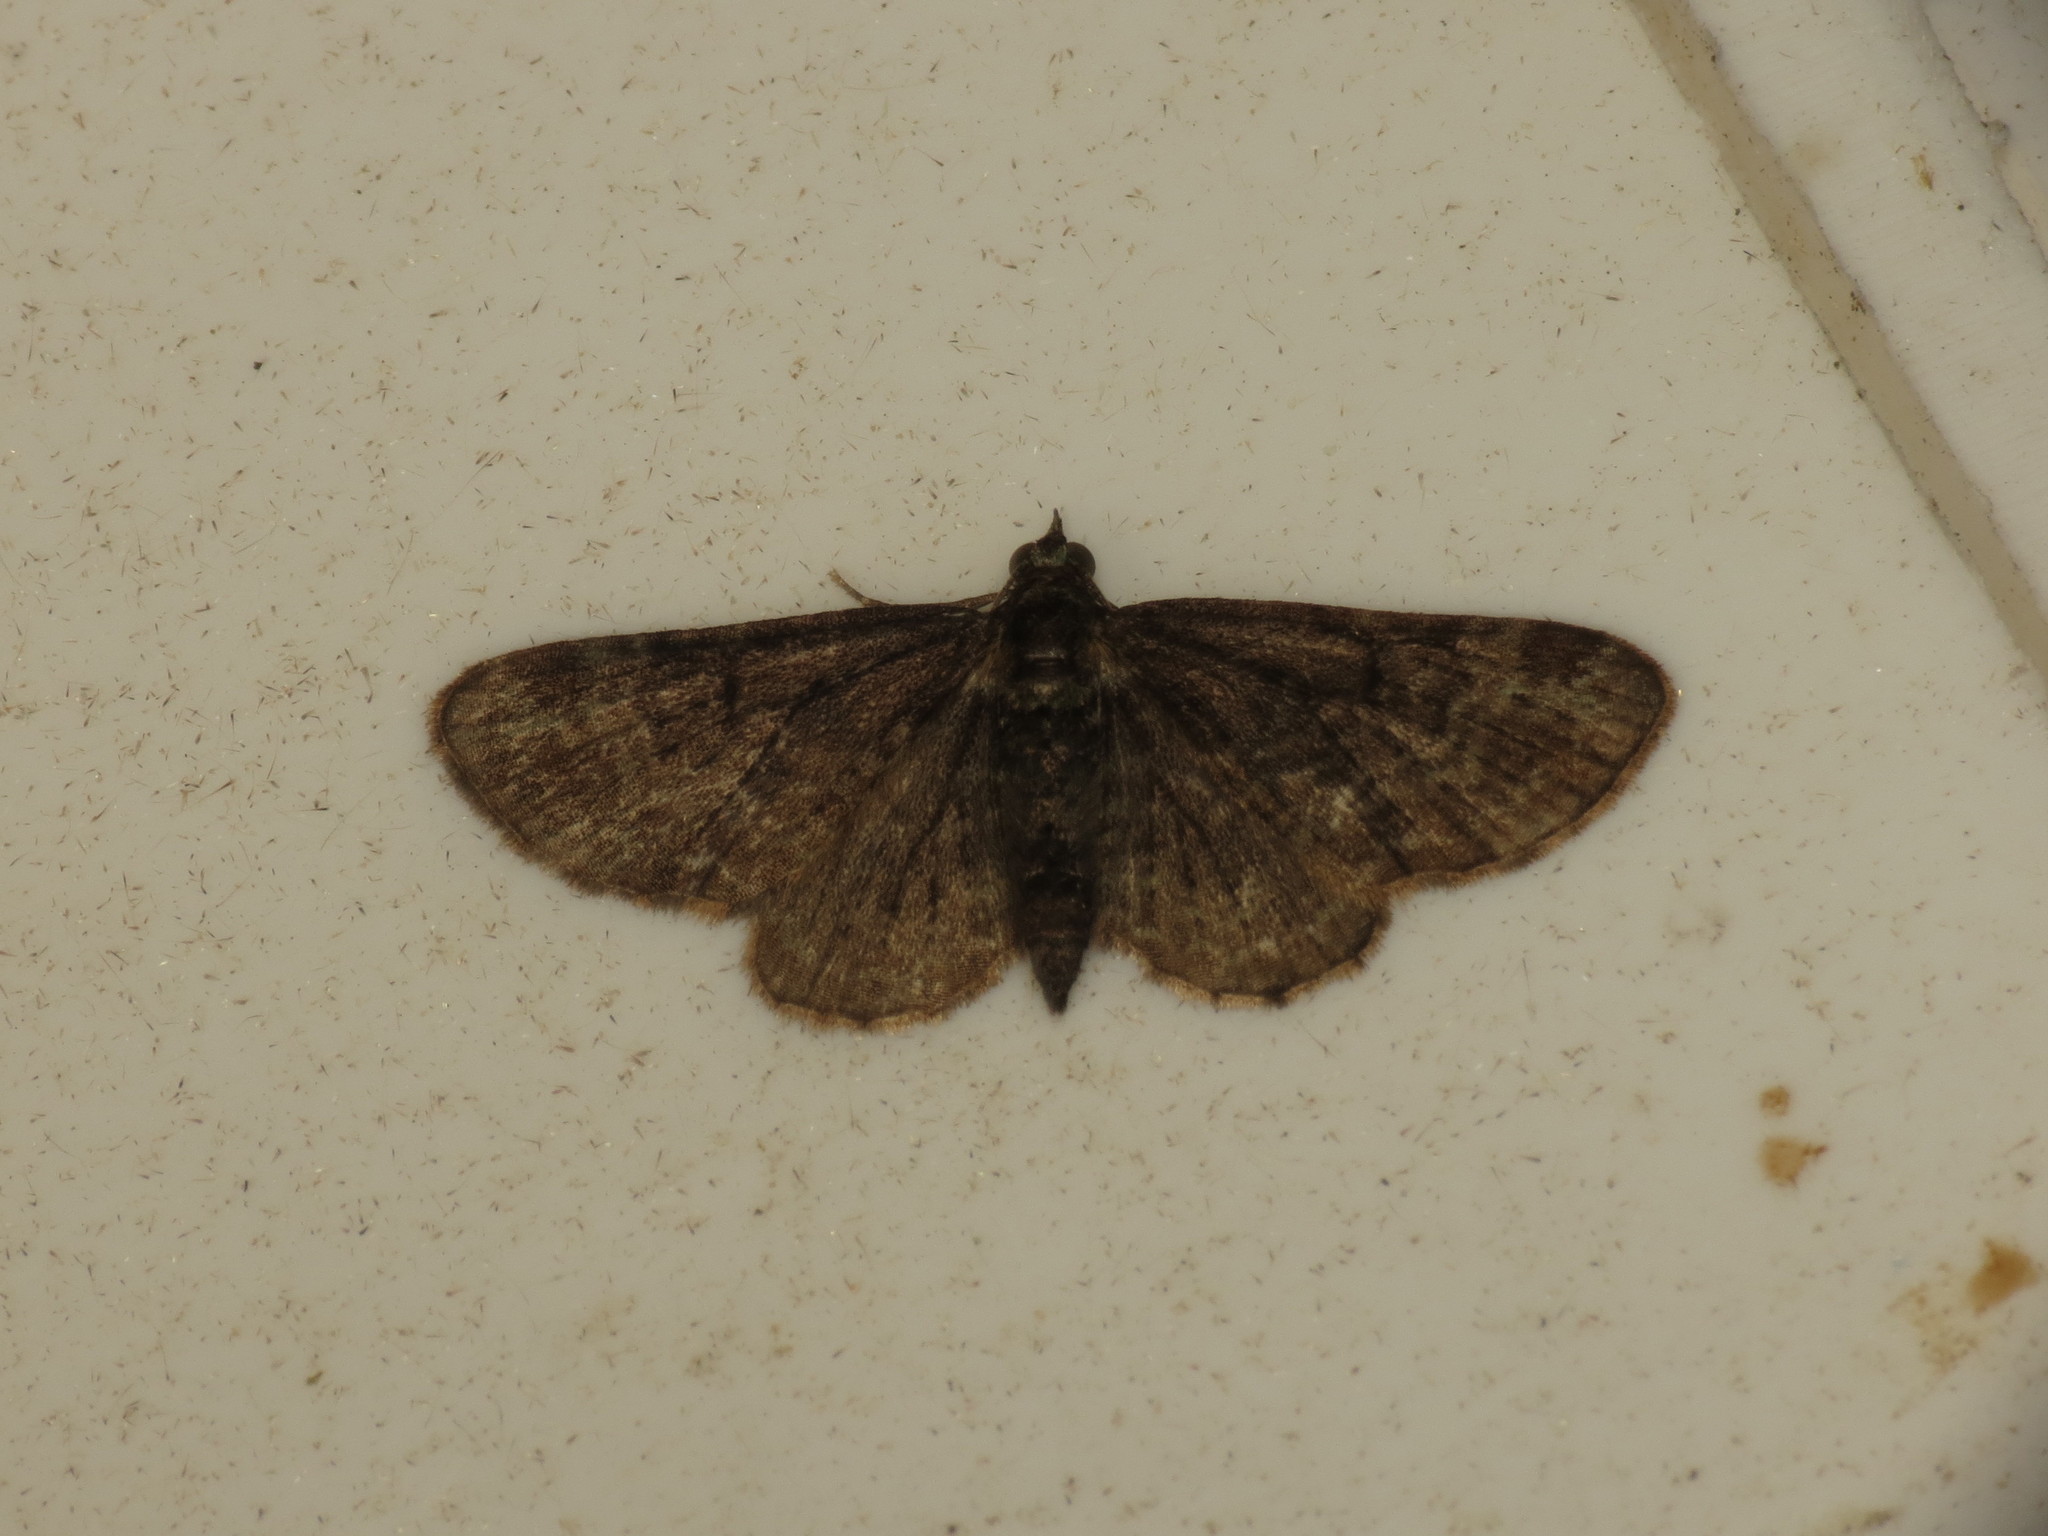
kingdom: Animalia
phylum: Arthropoda
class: Insecta
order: Lepidoptera
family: Geometridae
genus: Pasiphila
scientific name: Pasiphila rectangulata
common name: Green pug
